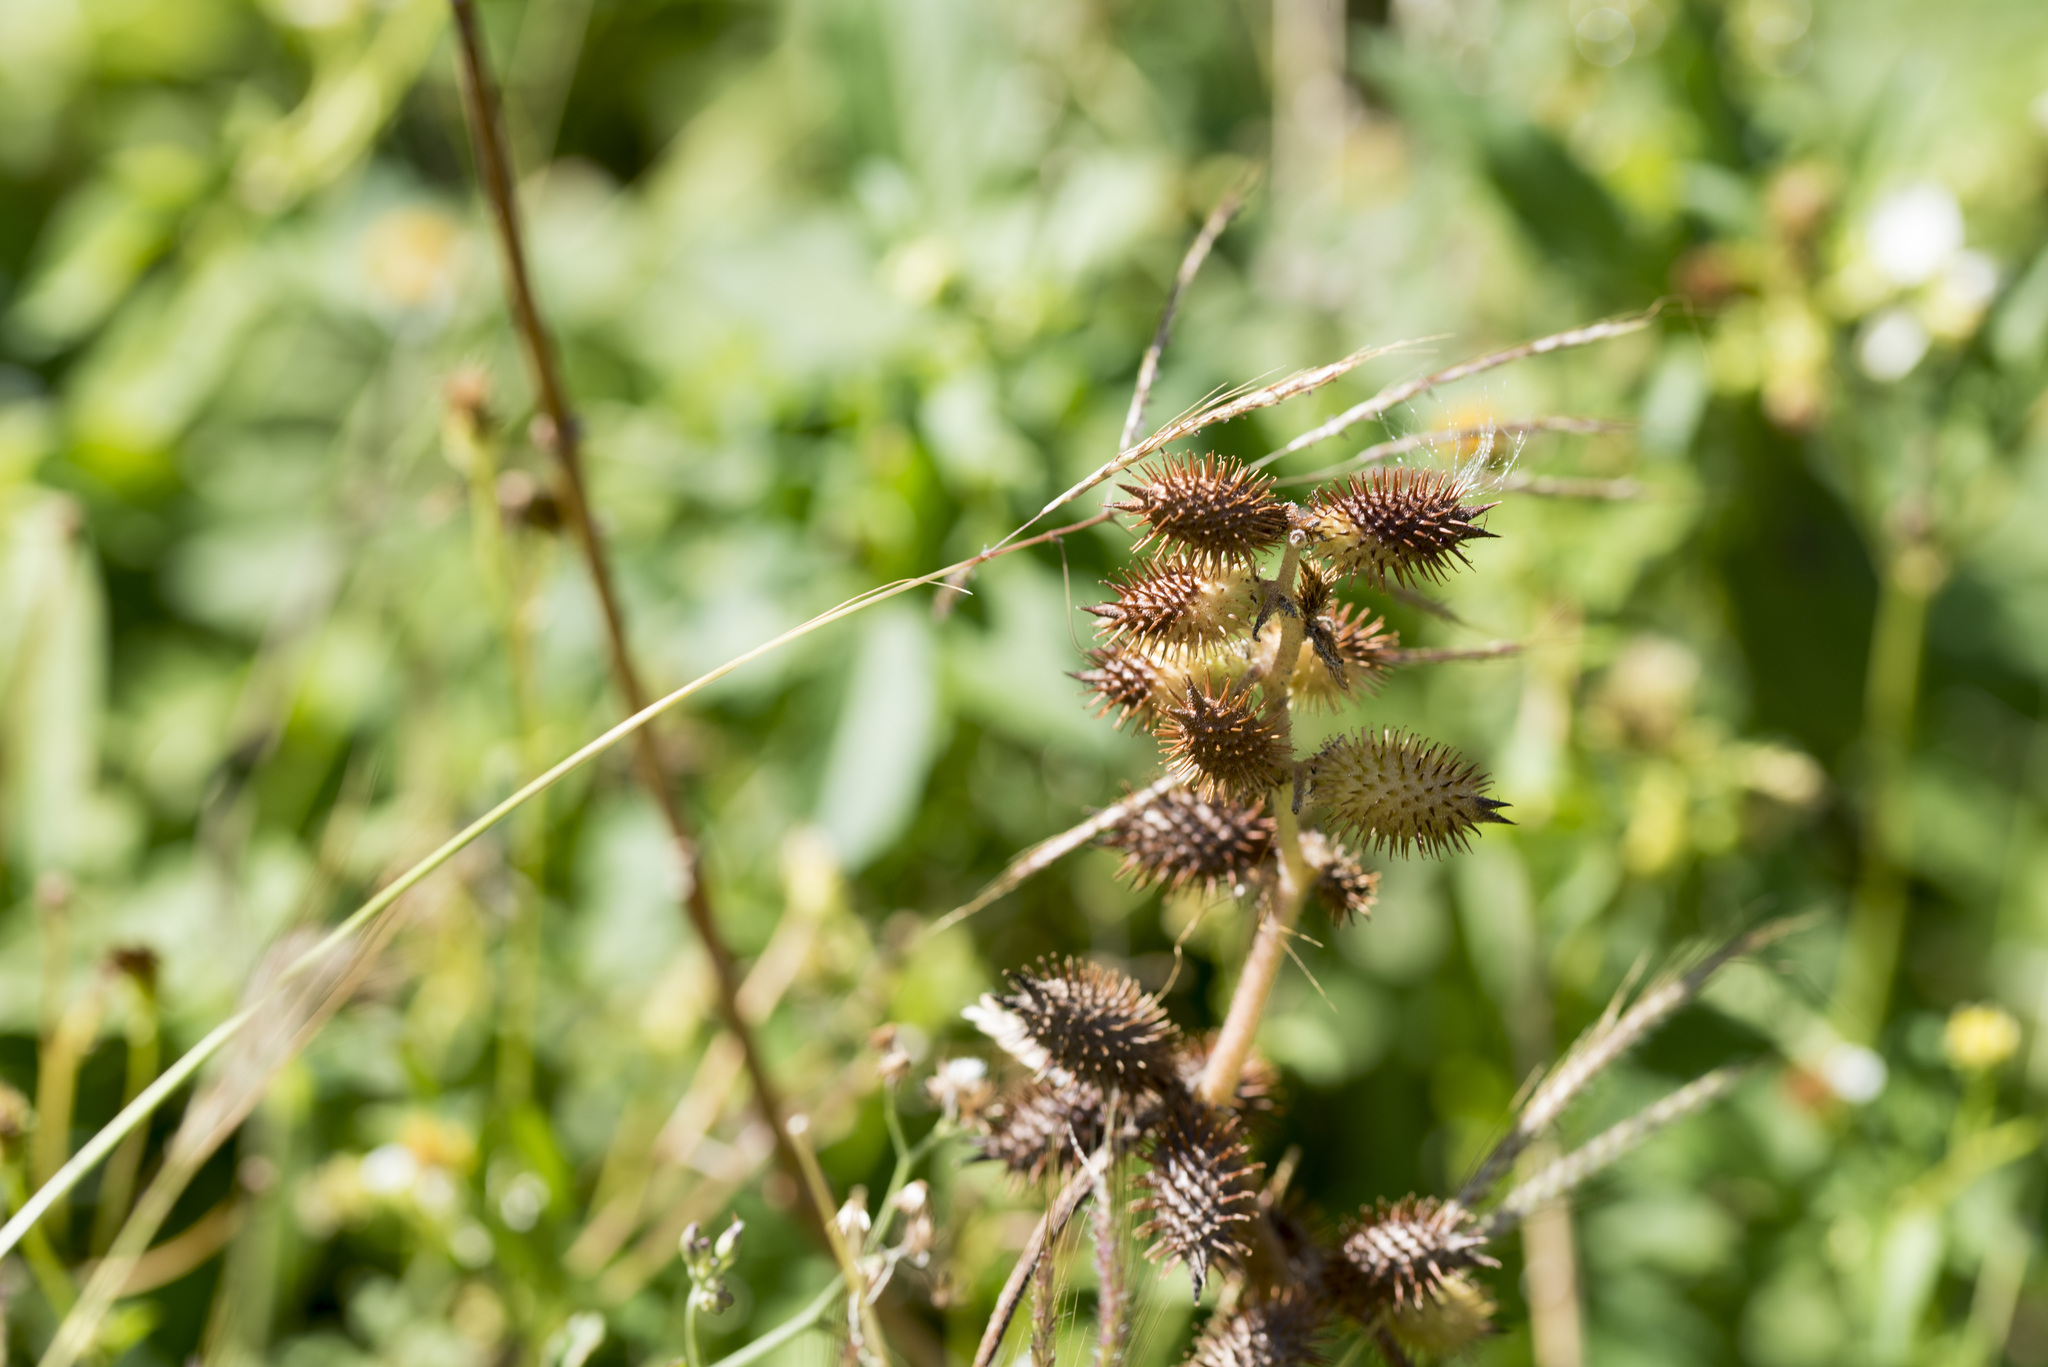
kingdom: Plantae
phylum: Tracheophyta
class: Magnoliopsida
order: Asterales
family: Asteraceae
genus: Xanthium
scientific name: Xanthium strumarium
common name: Rough cocklebur
